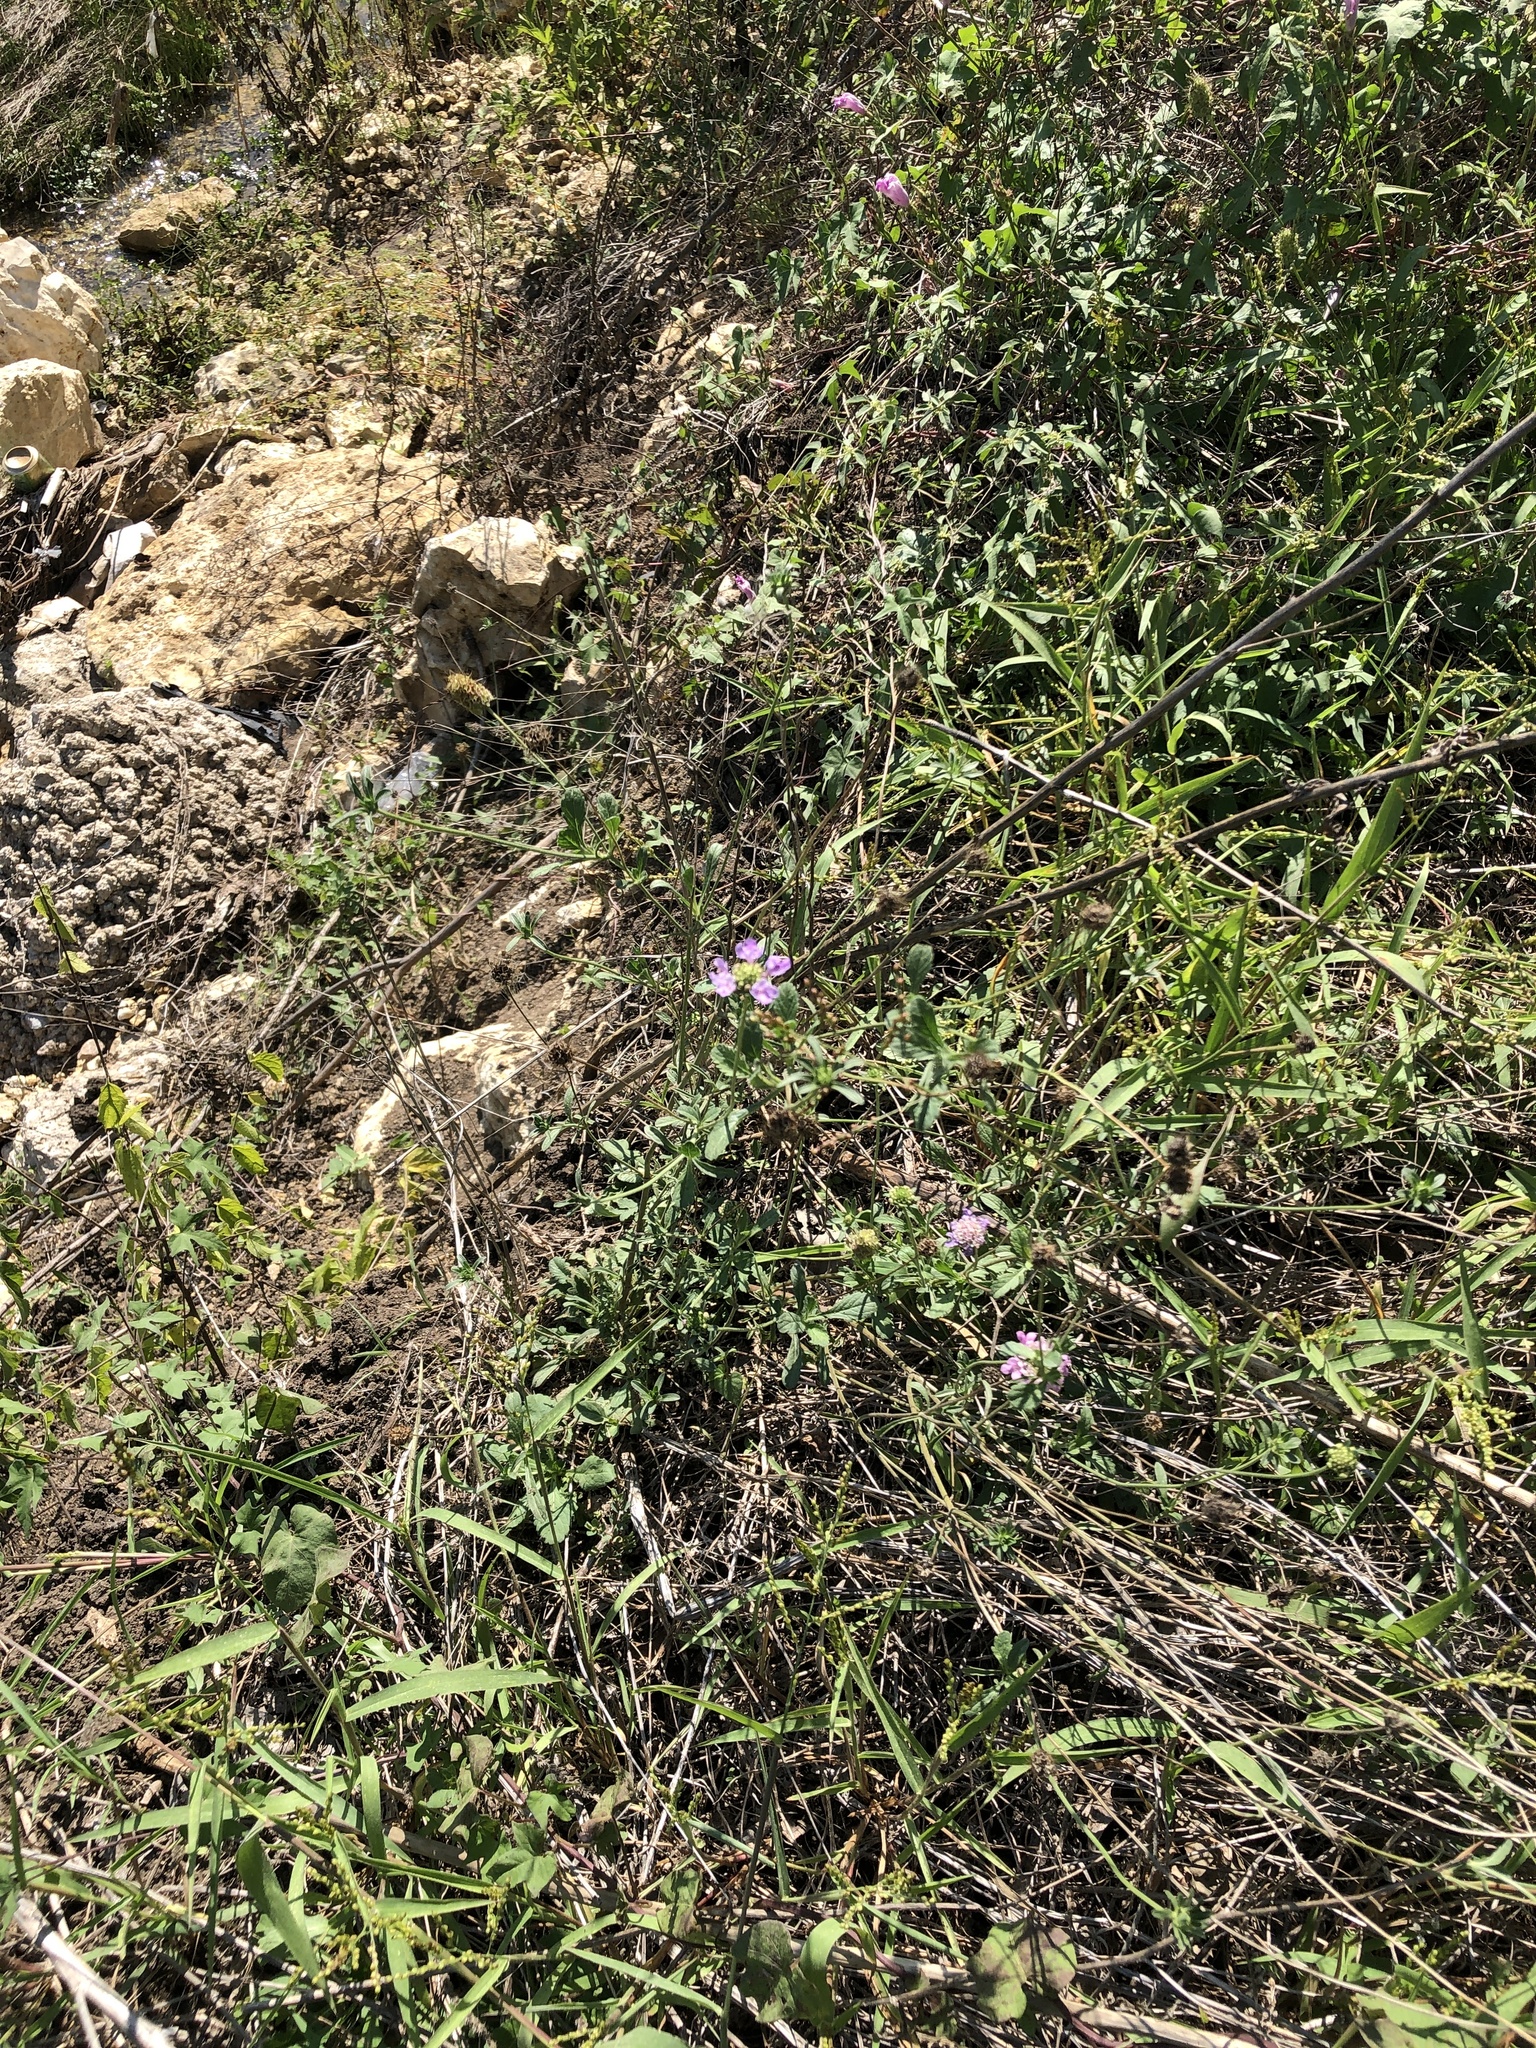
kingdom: Plantae
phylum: Tracheophyta
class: Magnoliopsida
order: Dipsacales
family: Caprifoliaceae
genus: Sixalix
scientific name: Sixalix atropurpurea
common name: Sweet scabious
